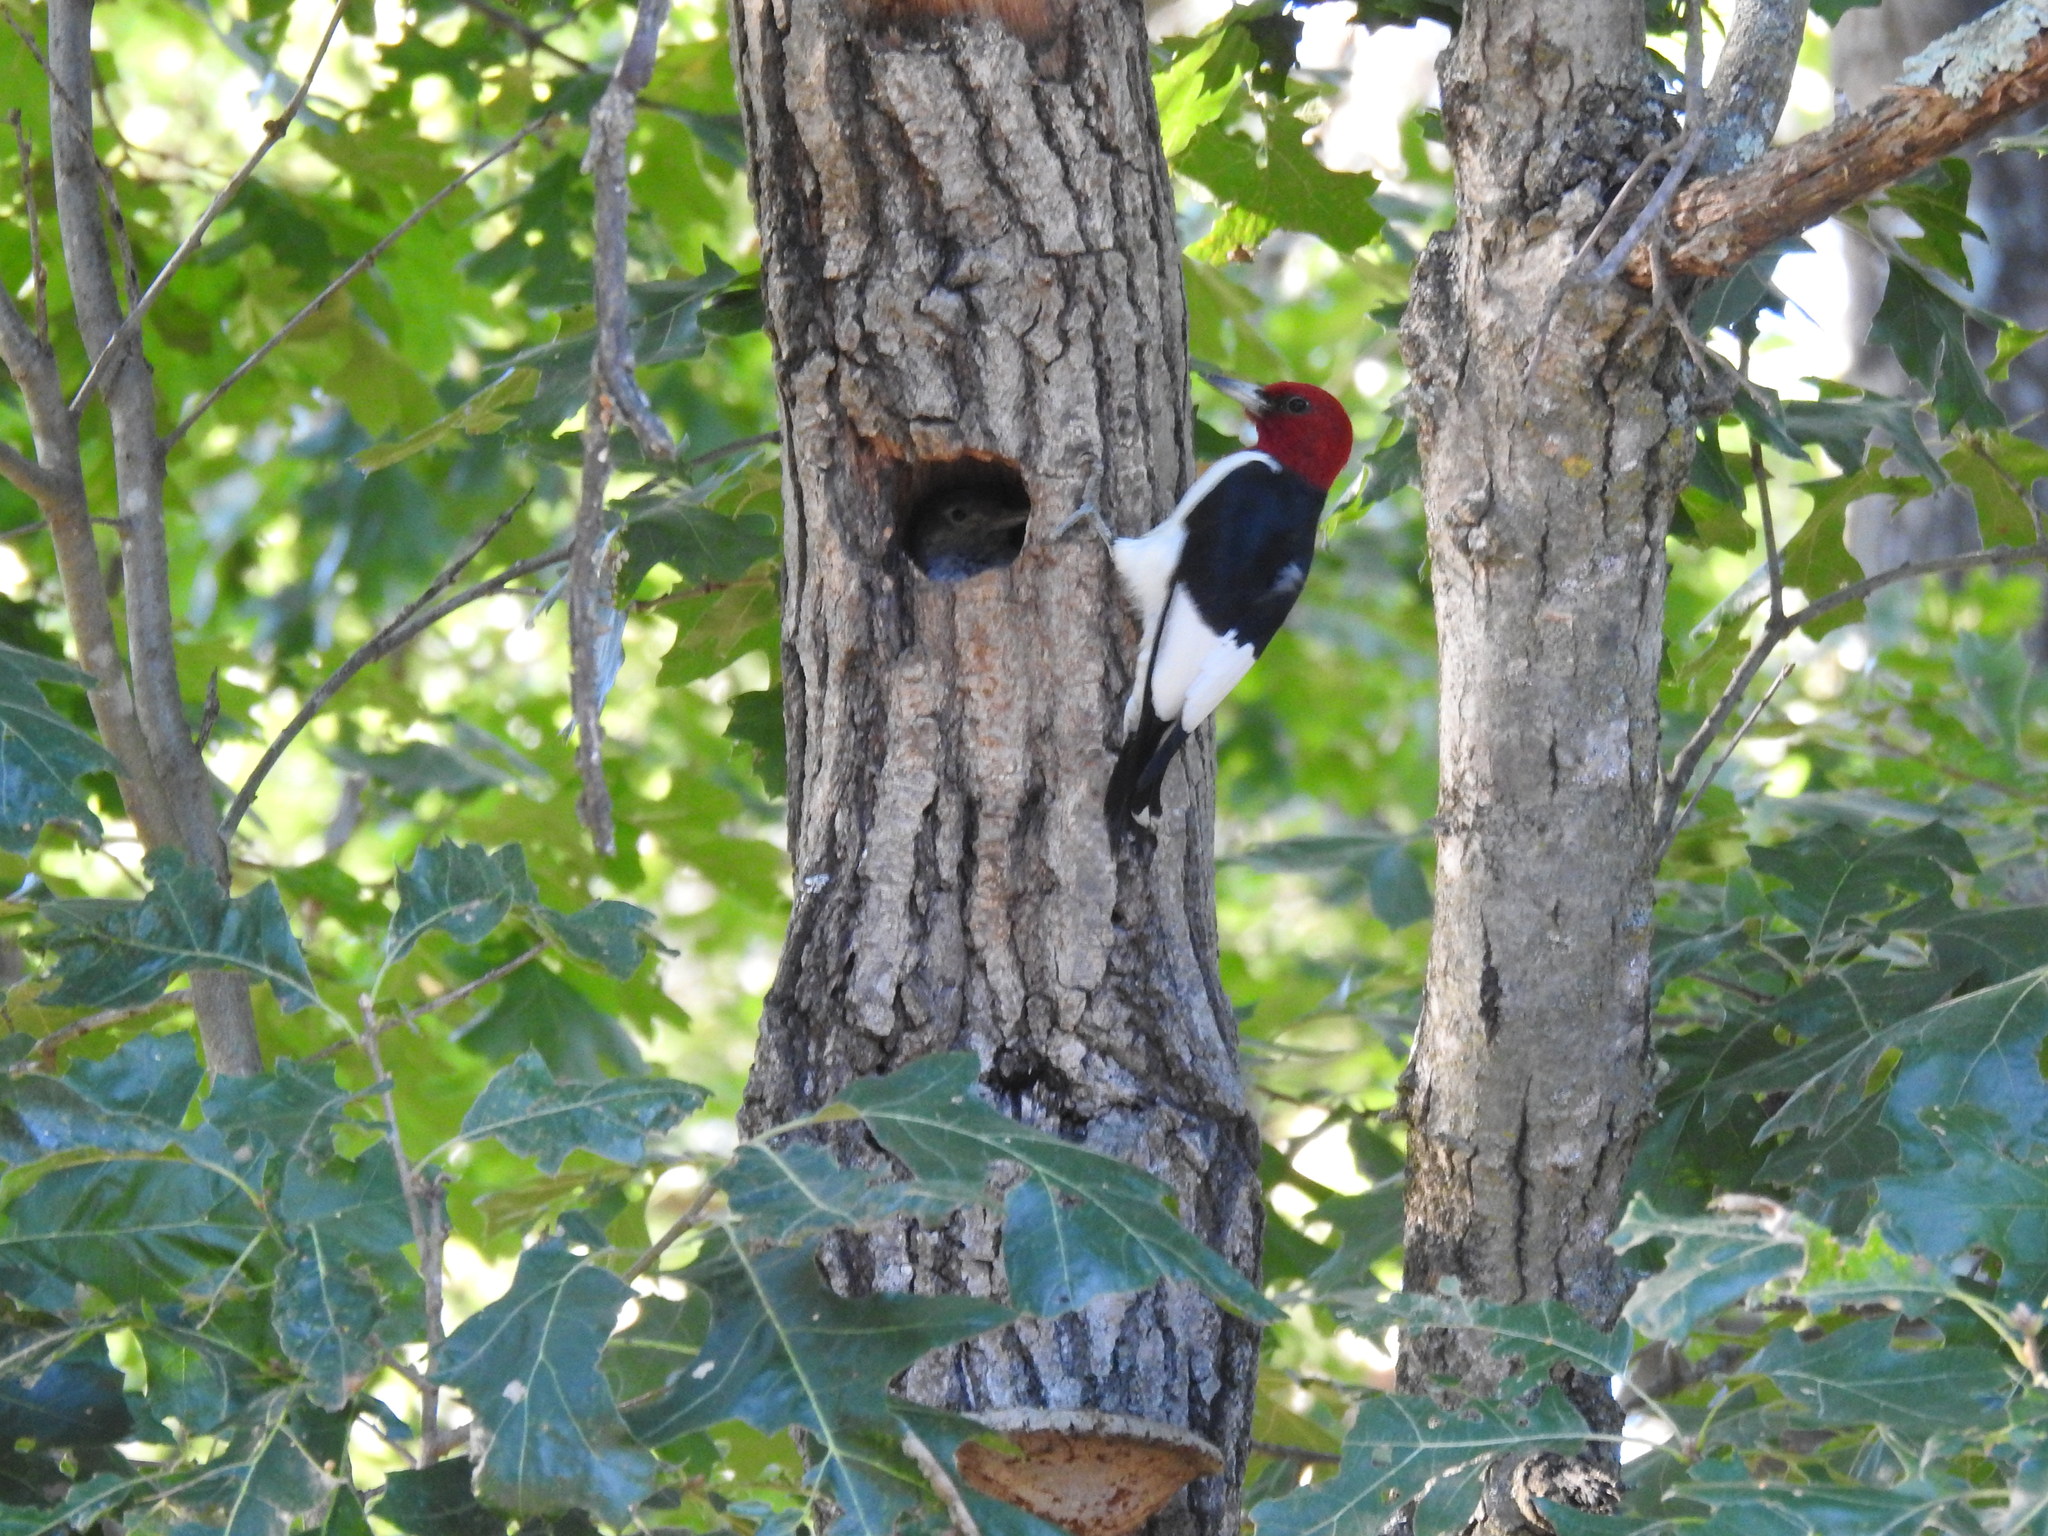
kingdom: Animalia
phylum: Chordata
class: Aves
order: Piciformes
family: Picidae
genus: Melanerpes
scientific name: Melanerpes erythrocephalus
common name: Red-headed woodpecker
